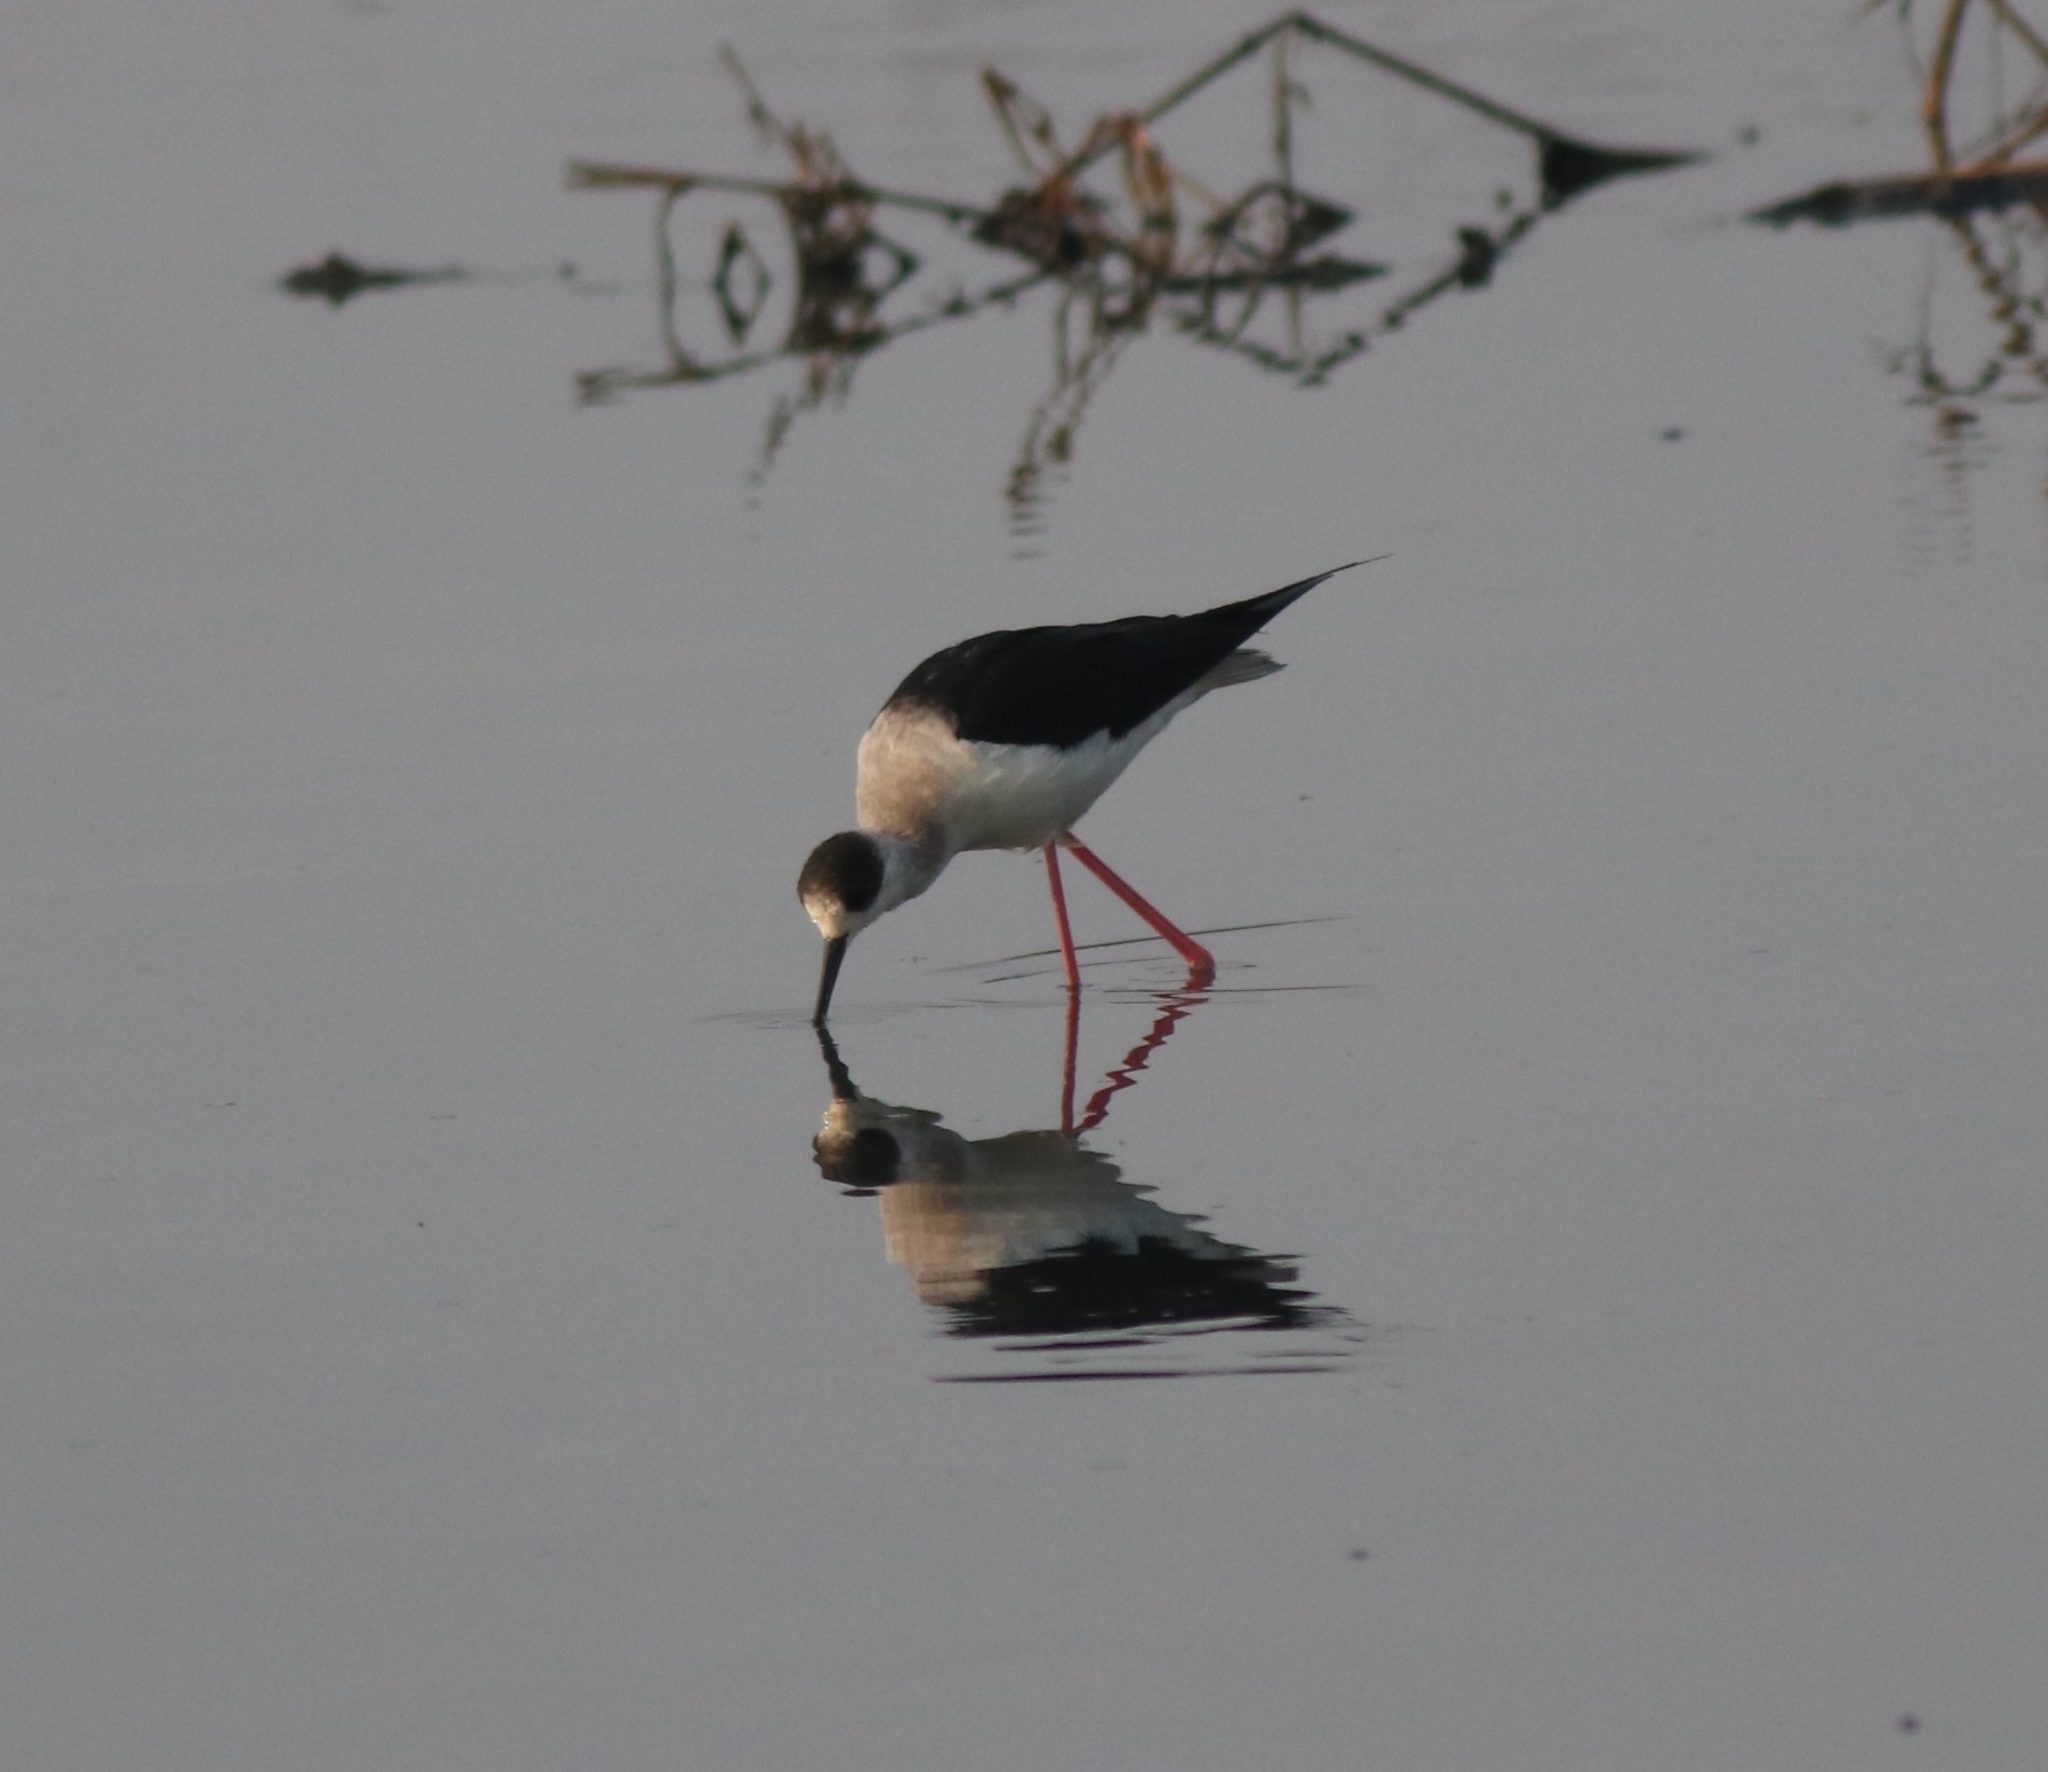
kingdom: Animalia
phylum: Chordata
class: Aves
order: Charadriiformes
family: Recurvirostridae
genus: Himantopus
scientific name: Himantopus himantopus
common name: Black-winged stilt
